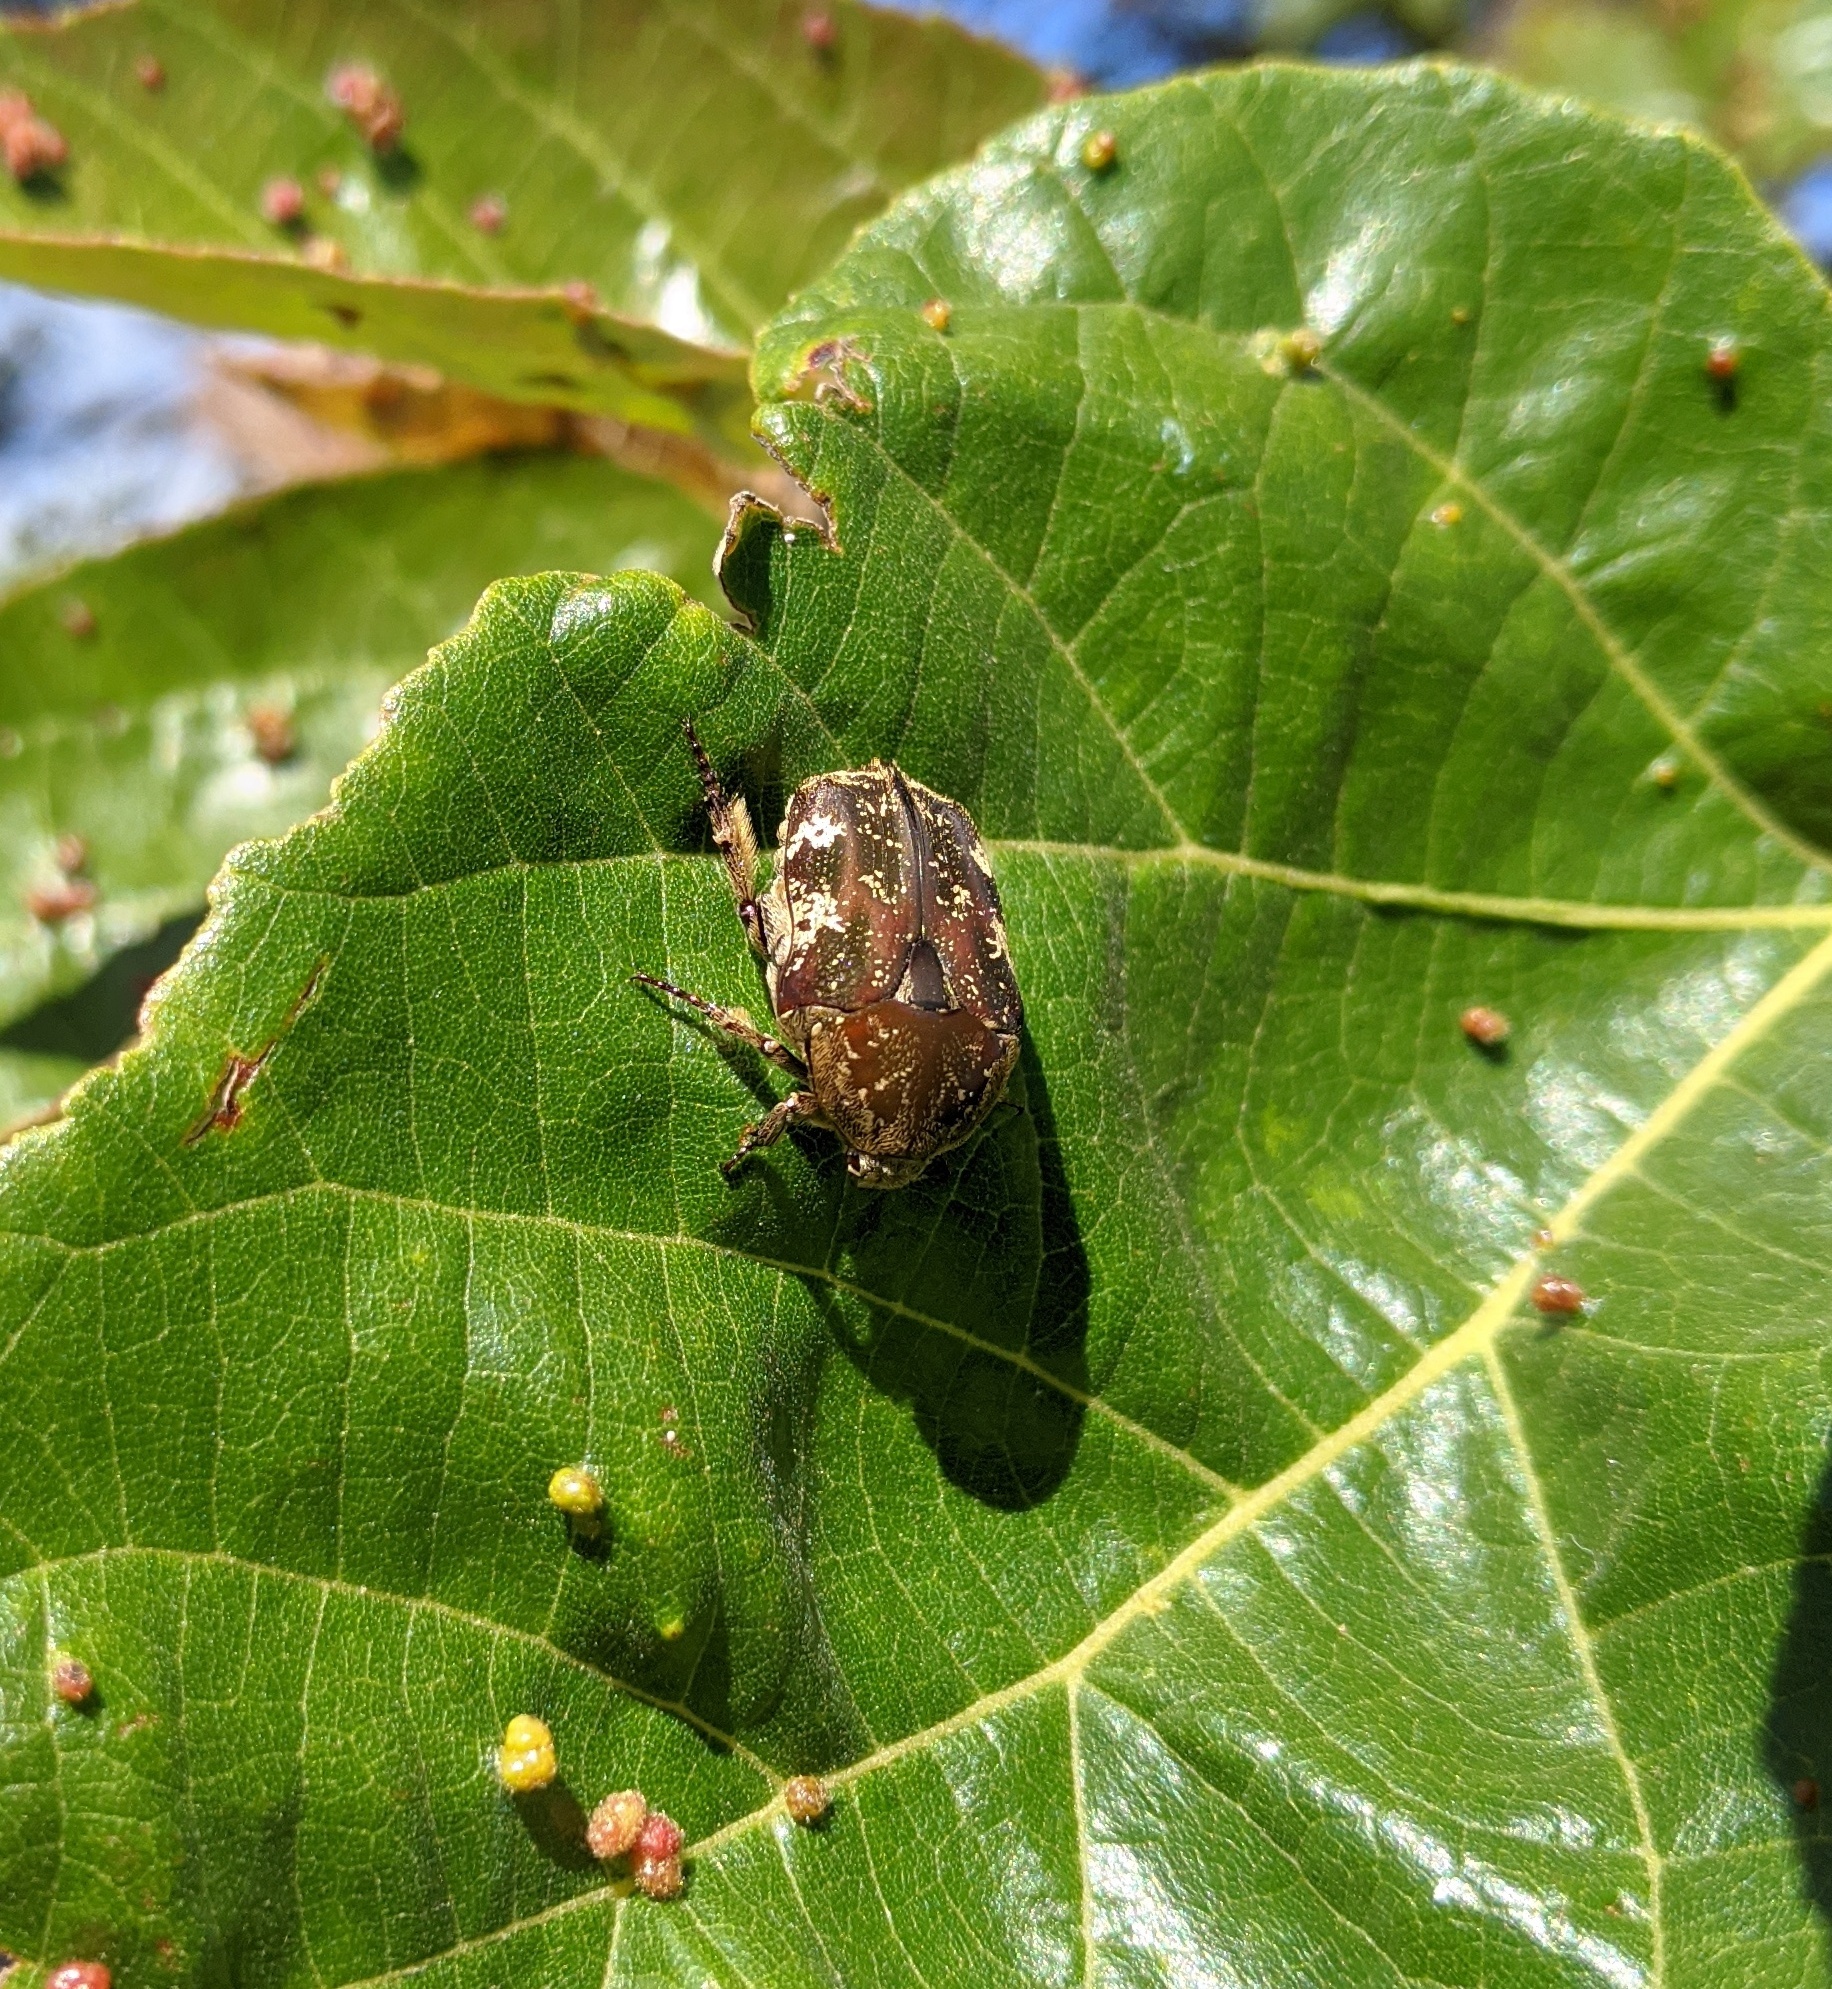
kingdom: Animalia
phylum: Arthropoda
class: Insecta
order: Coleoptera
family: Scarabaeidae
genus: Protaetia
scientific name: Protaetia fusca
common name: Mango flower beetle
